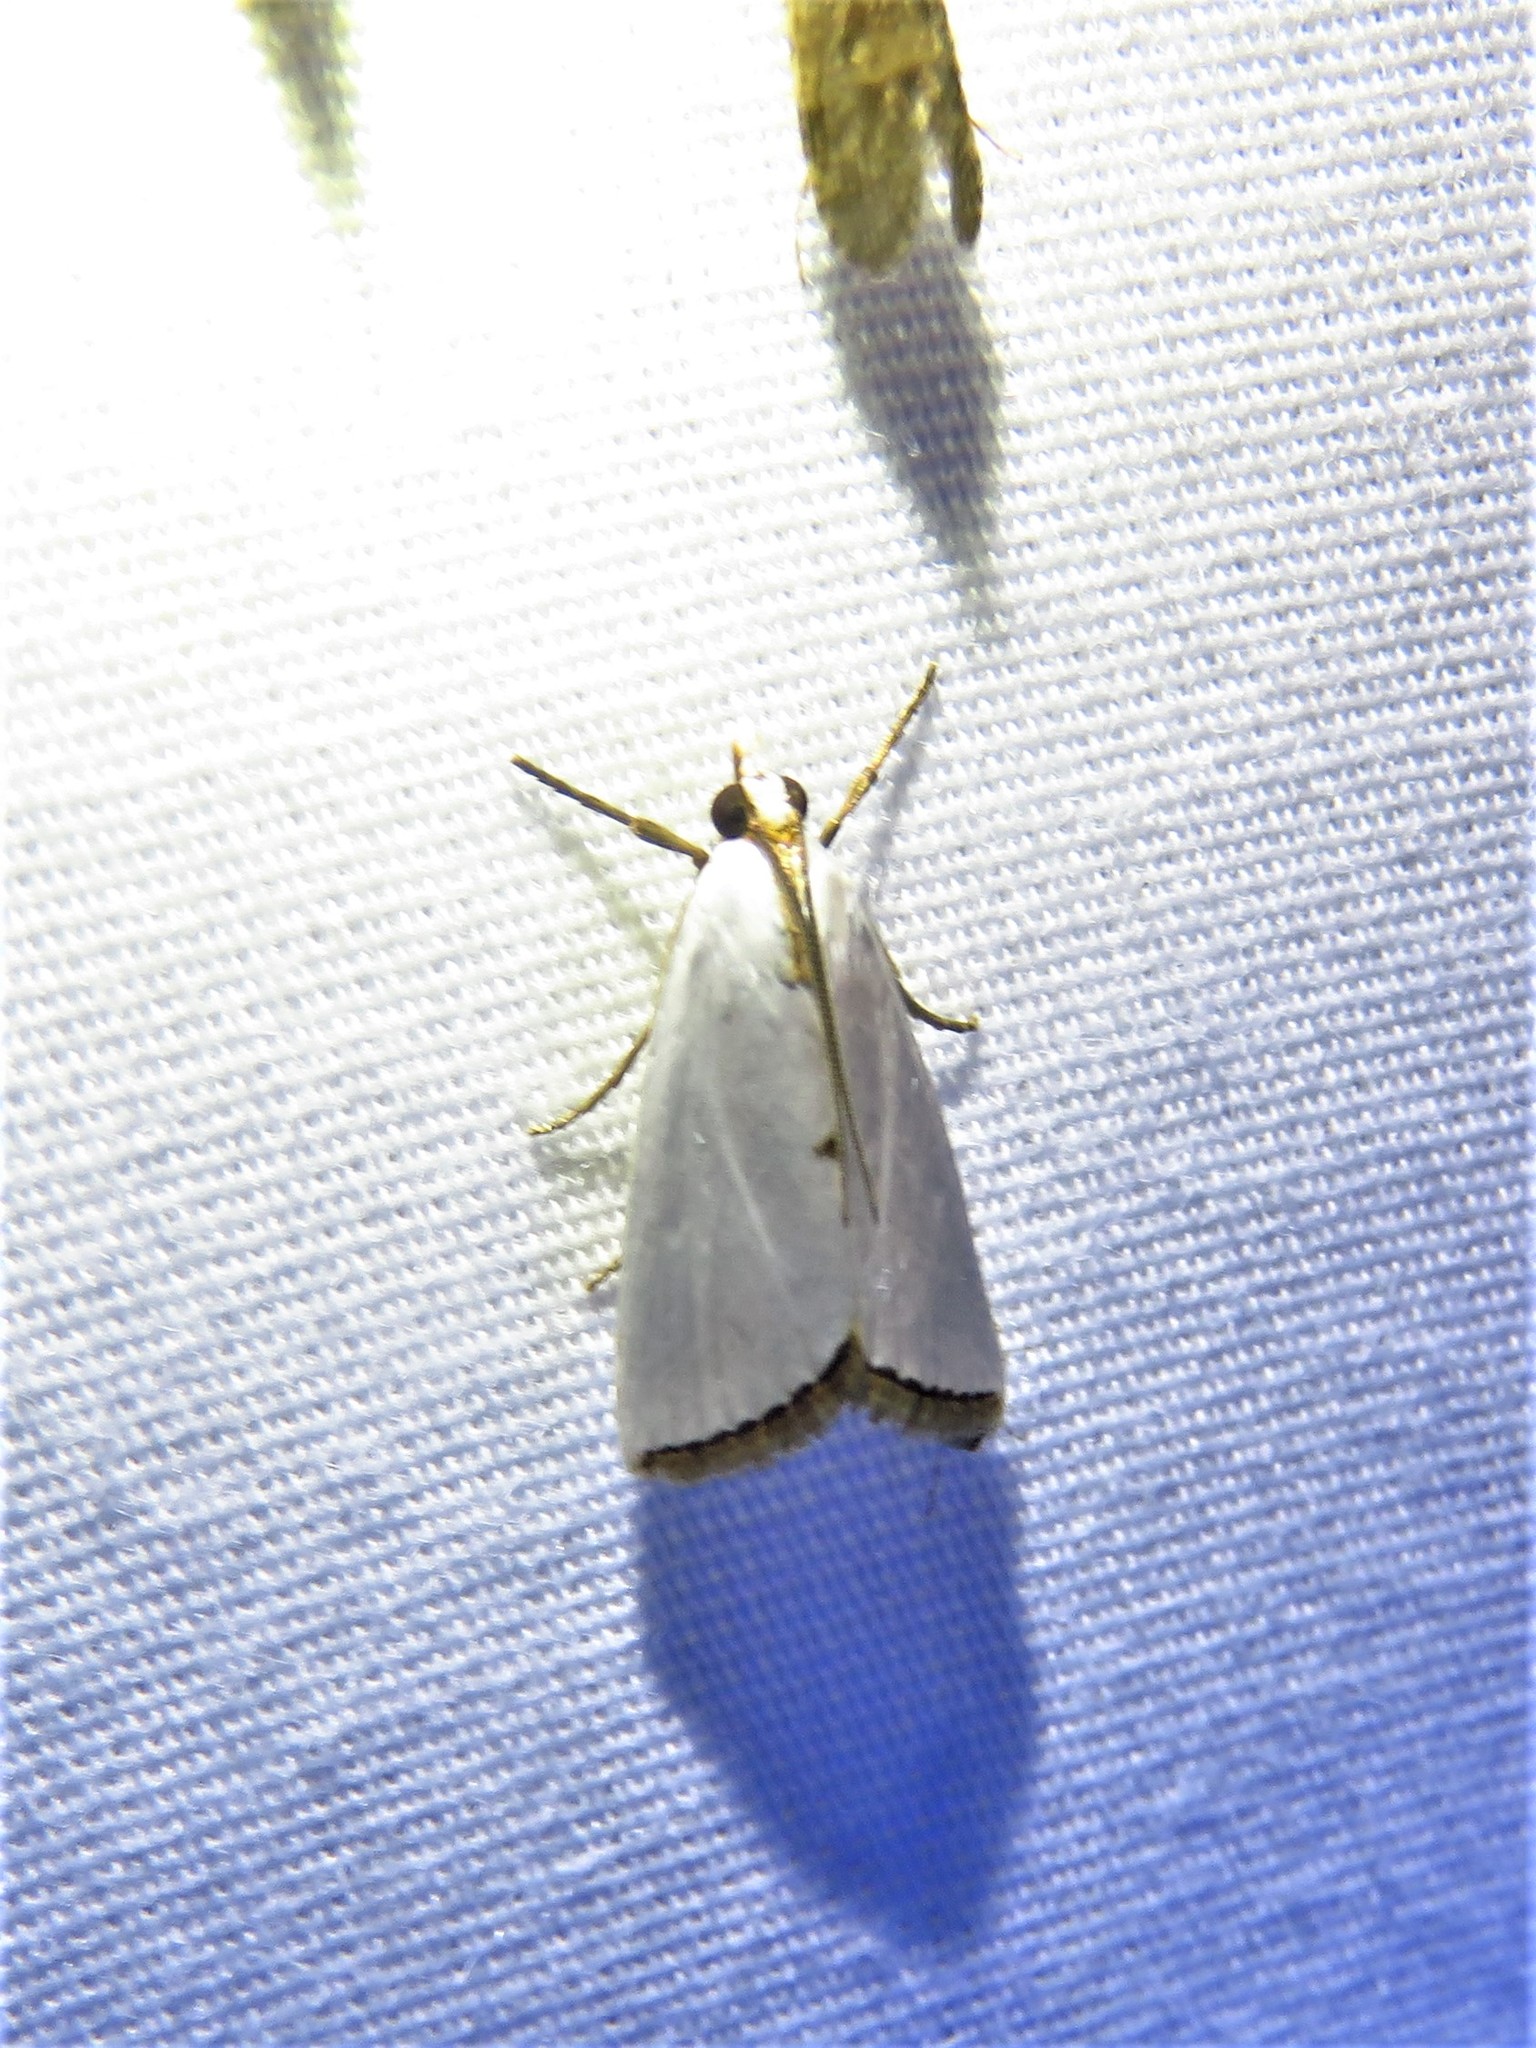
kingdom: Animalia
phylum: Arthropoda
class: Insecta
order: Lepidoptera
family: Crambidae
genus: Argyria
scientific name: Argyria nivalis
